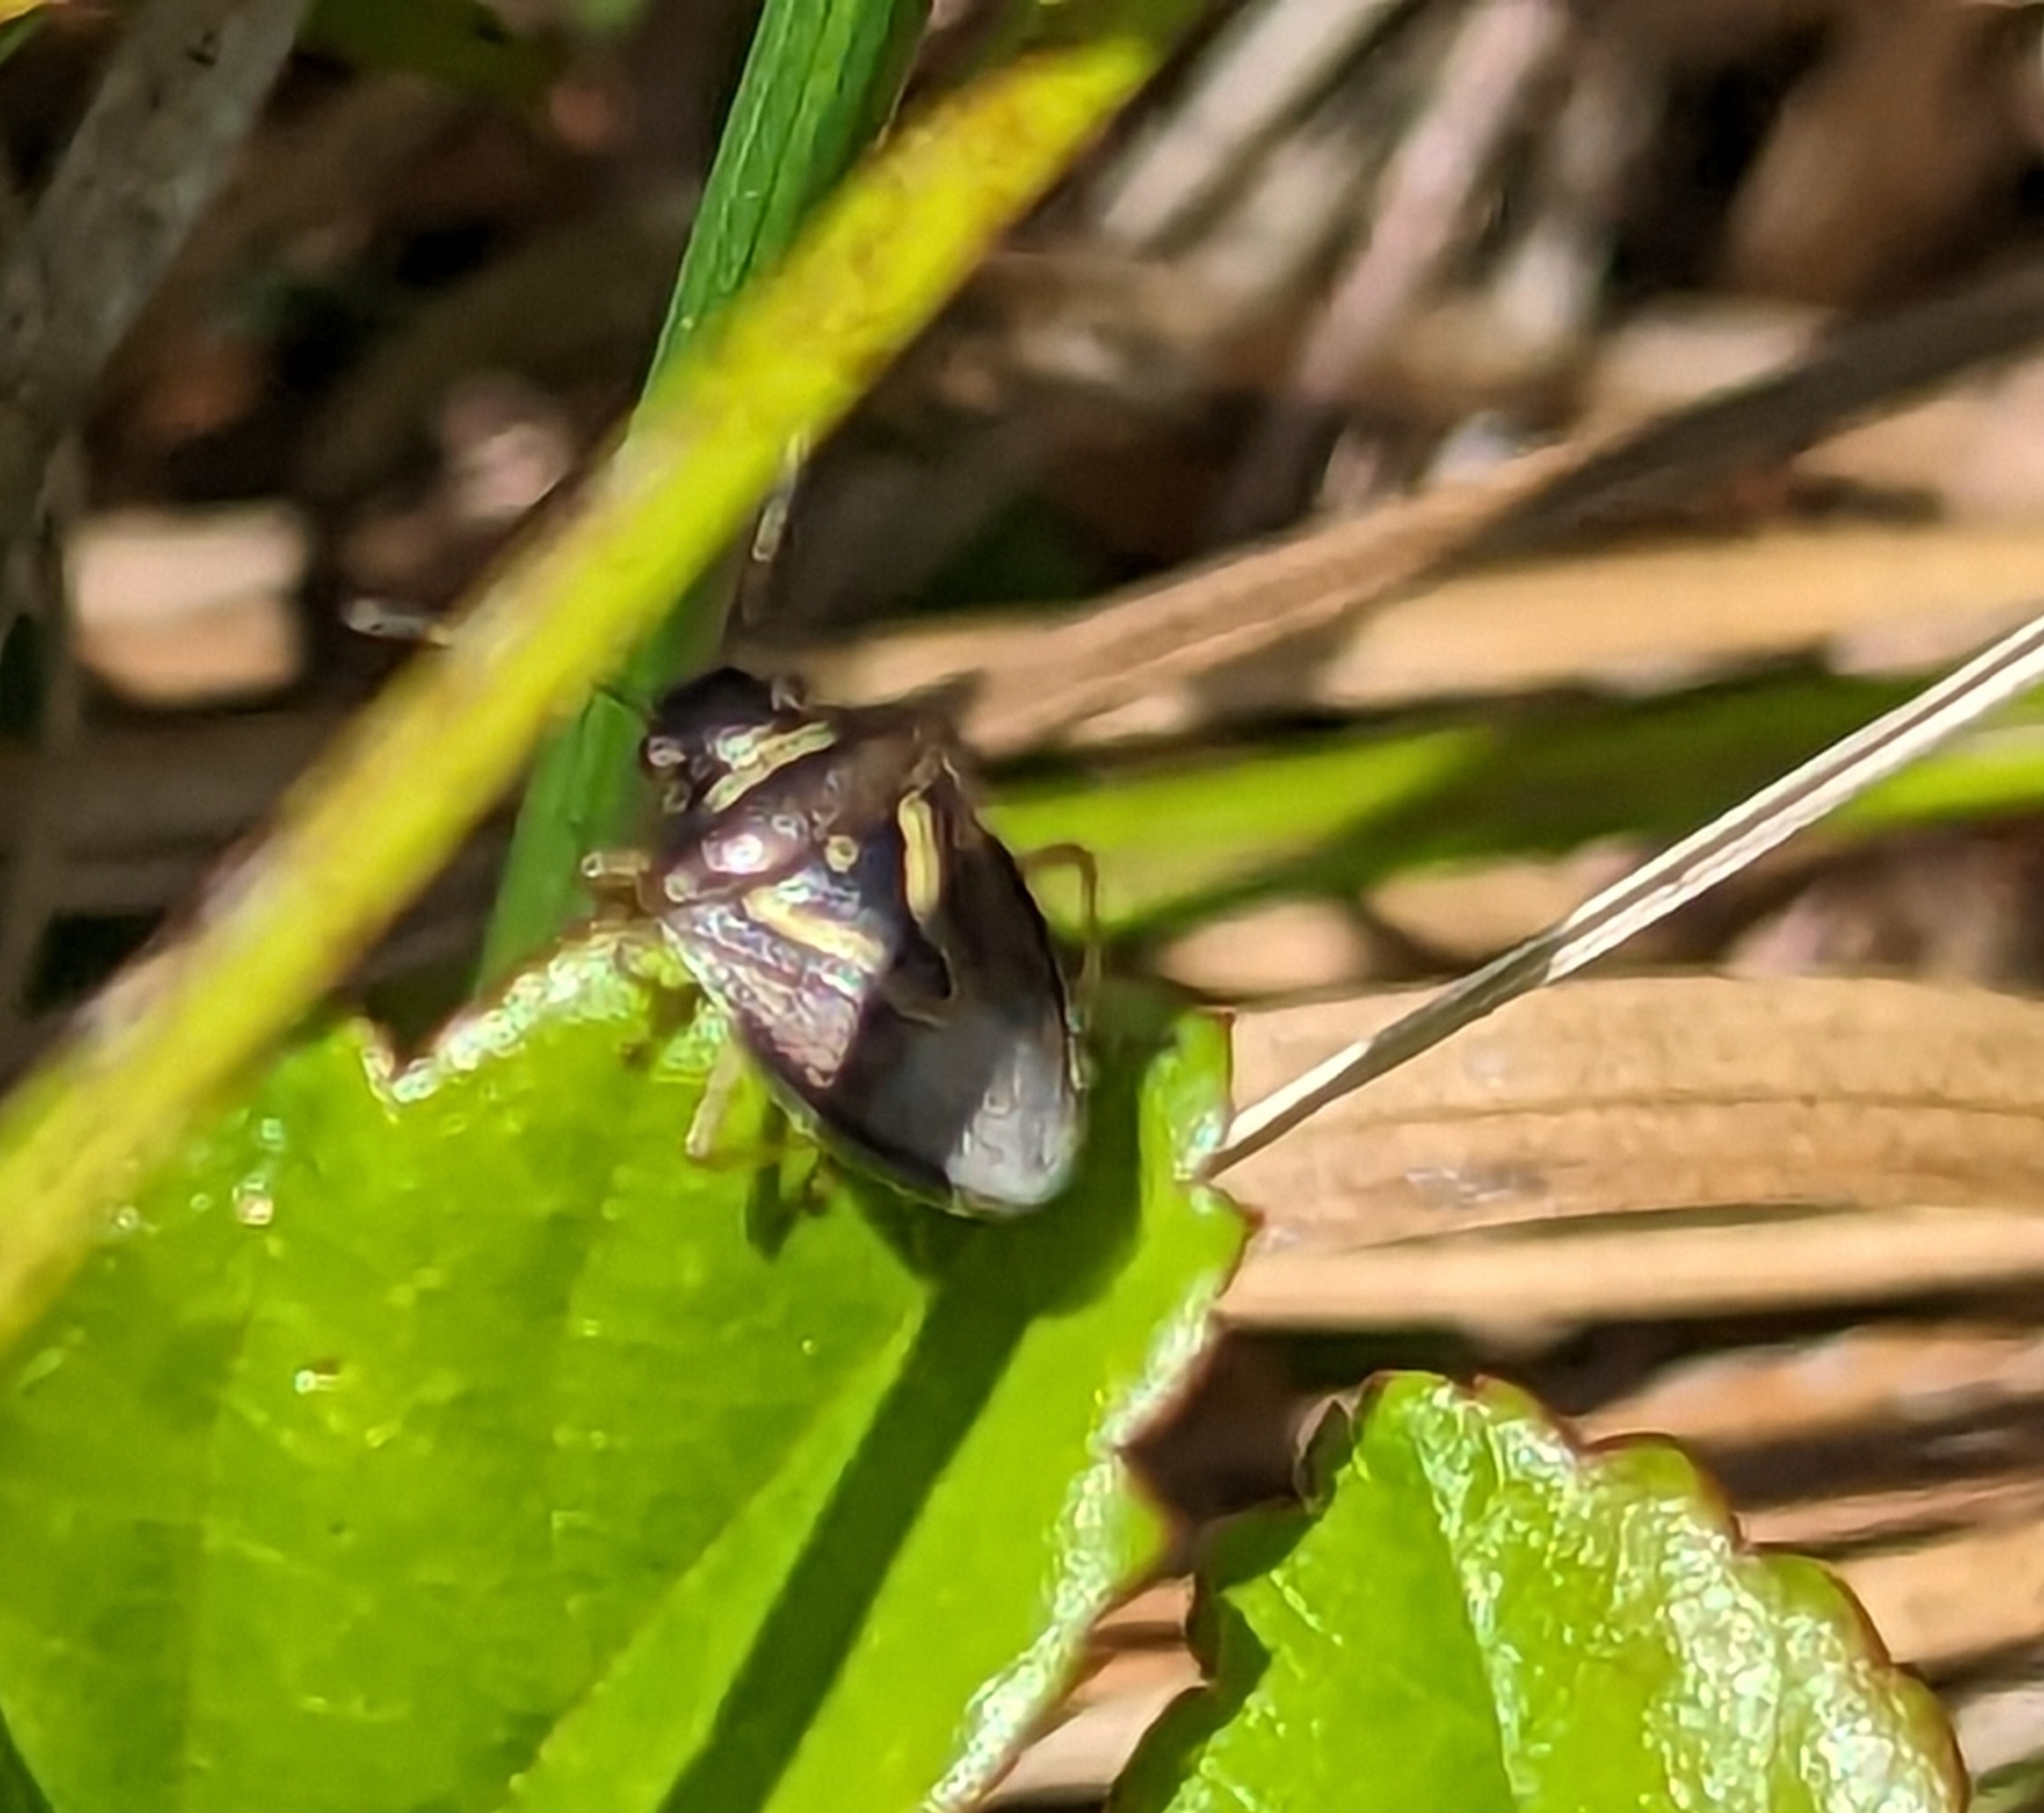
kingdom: Animalia
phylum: Arthropoda
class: Insecta
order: Hemiptera
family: Pentatomidae
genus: Mormidea
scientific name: Mormidea lugens
